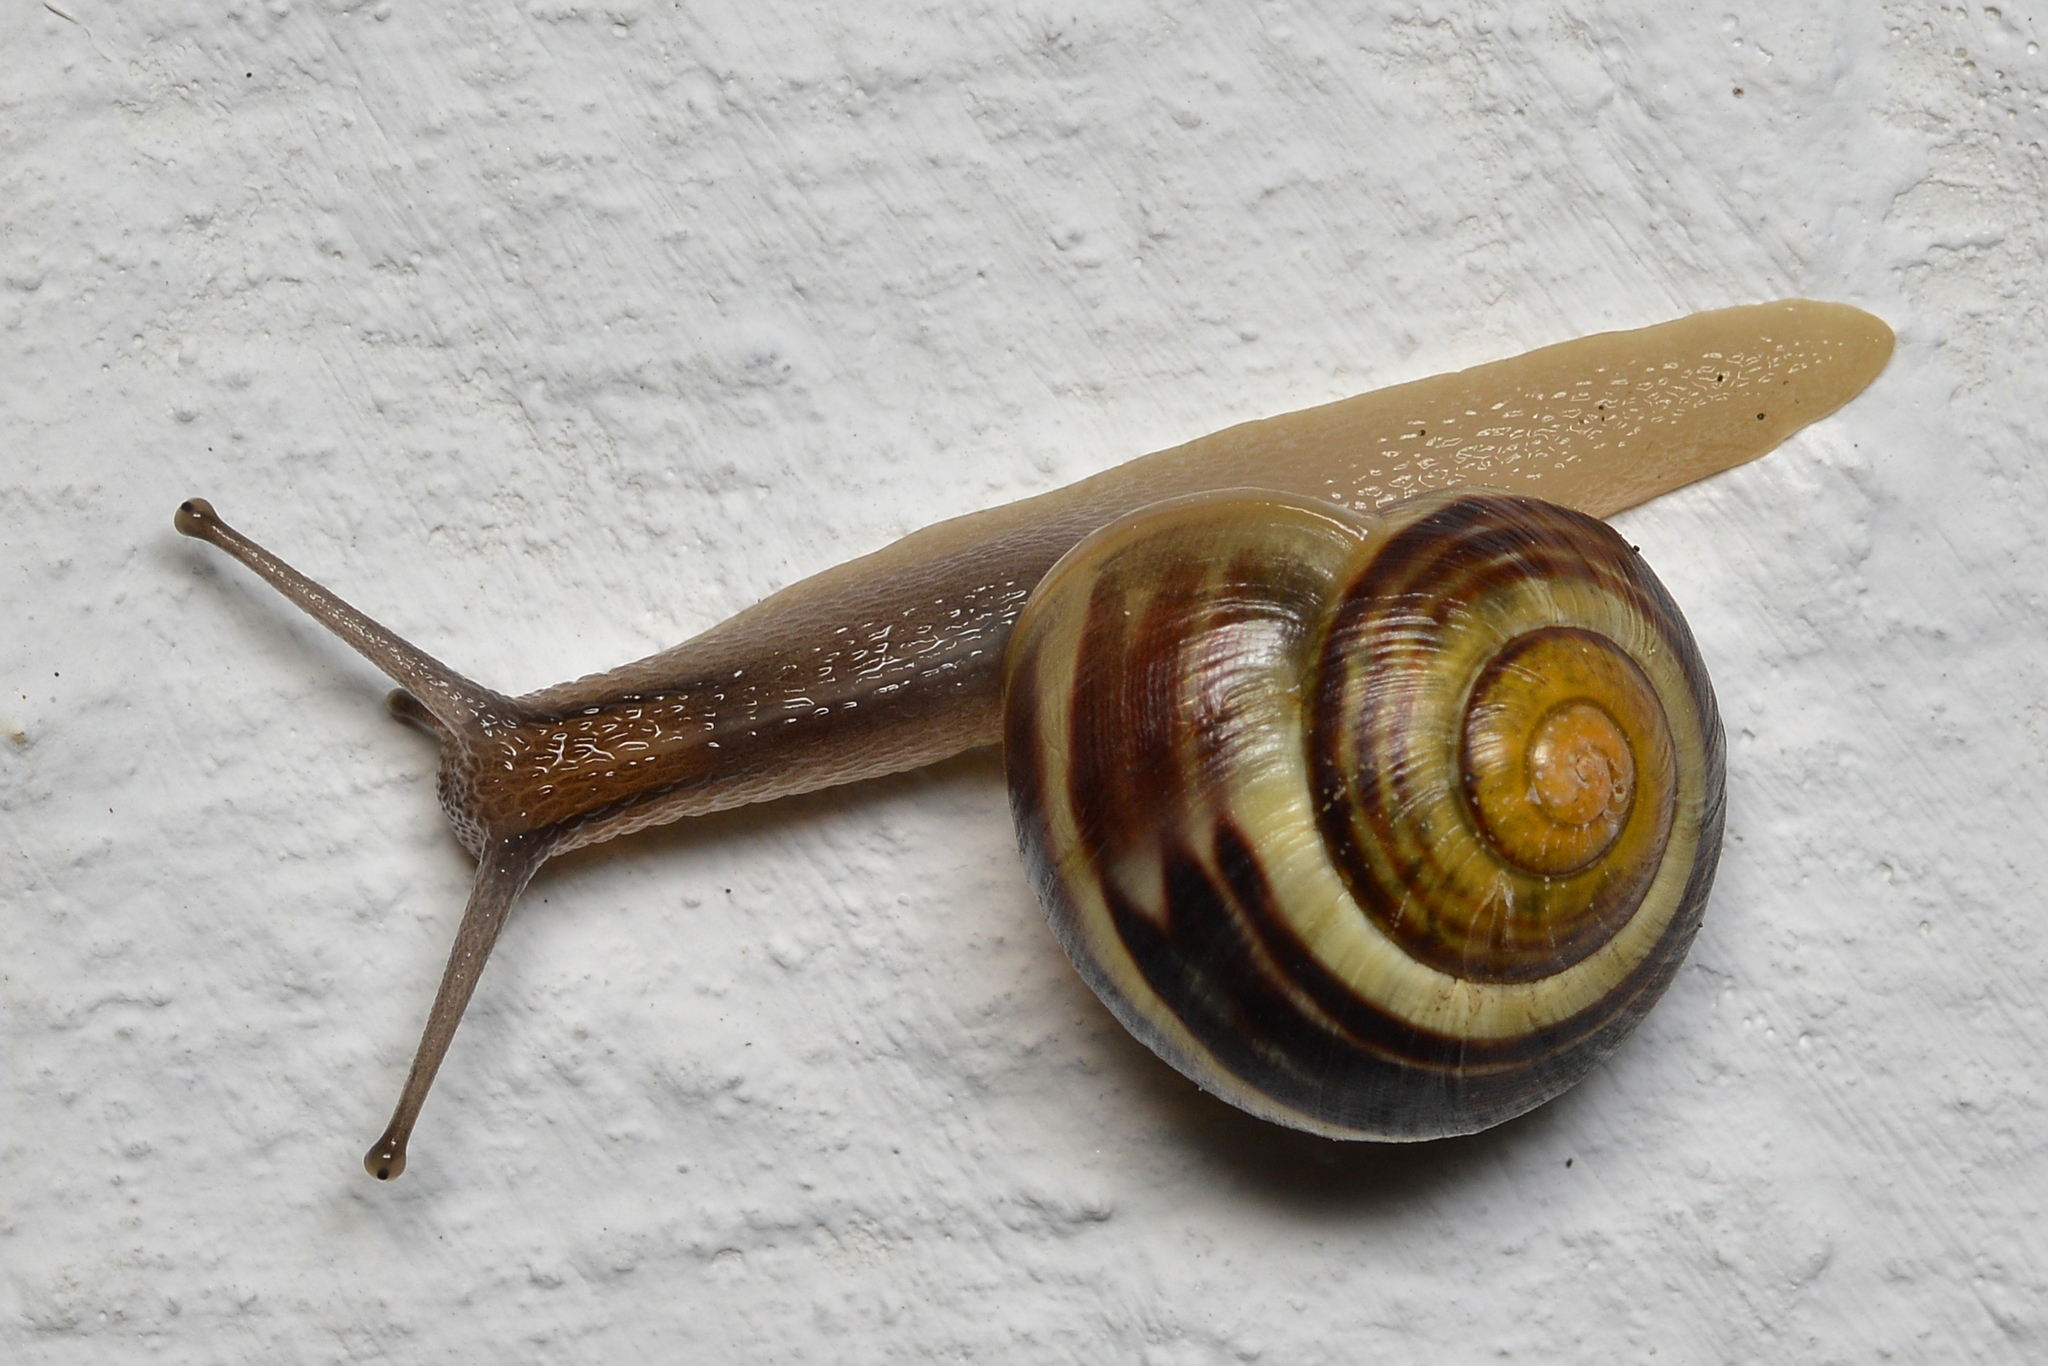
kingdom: Animalia
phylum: Mollusca
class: Gastropoda
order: Stylommatophora
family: Helicidae
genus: Cepaea
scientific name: Cepaea
